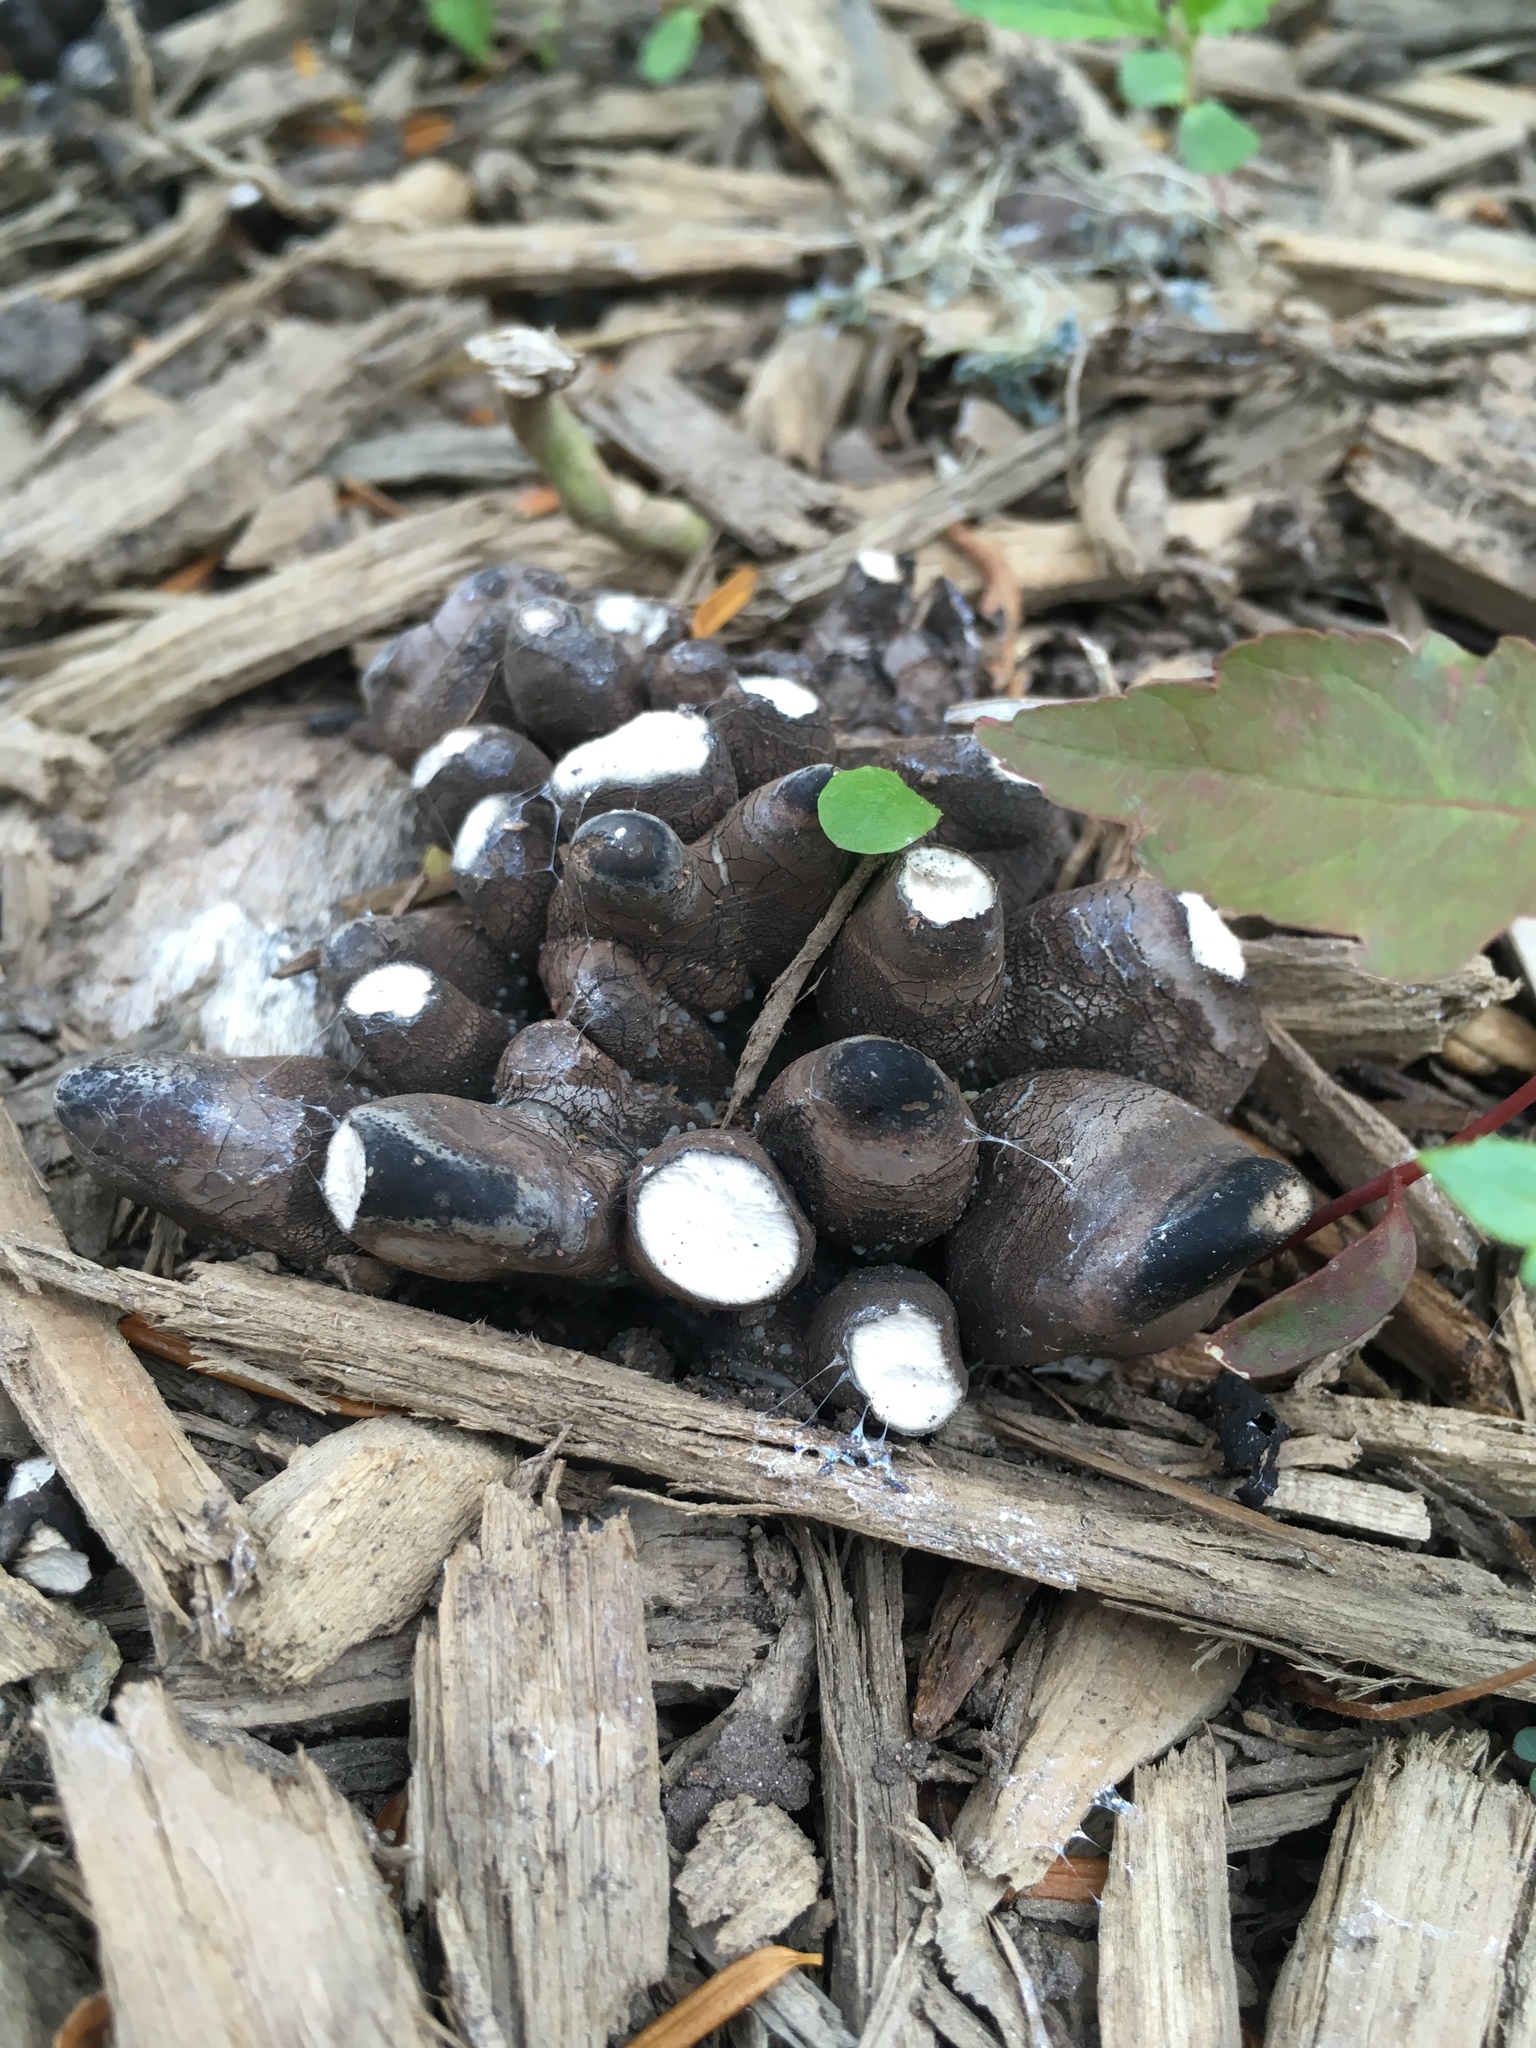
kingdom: Fungi
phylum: Ascomycota
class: Sordariomycetes
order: Xylariales
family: Xylariaceae
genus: Xylaria
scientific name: Xylaria polymorpha
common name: Dead man's fingers
